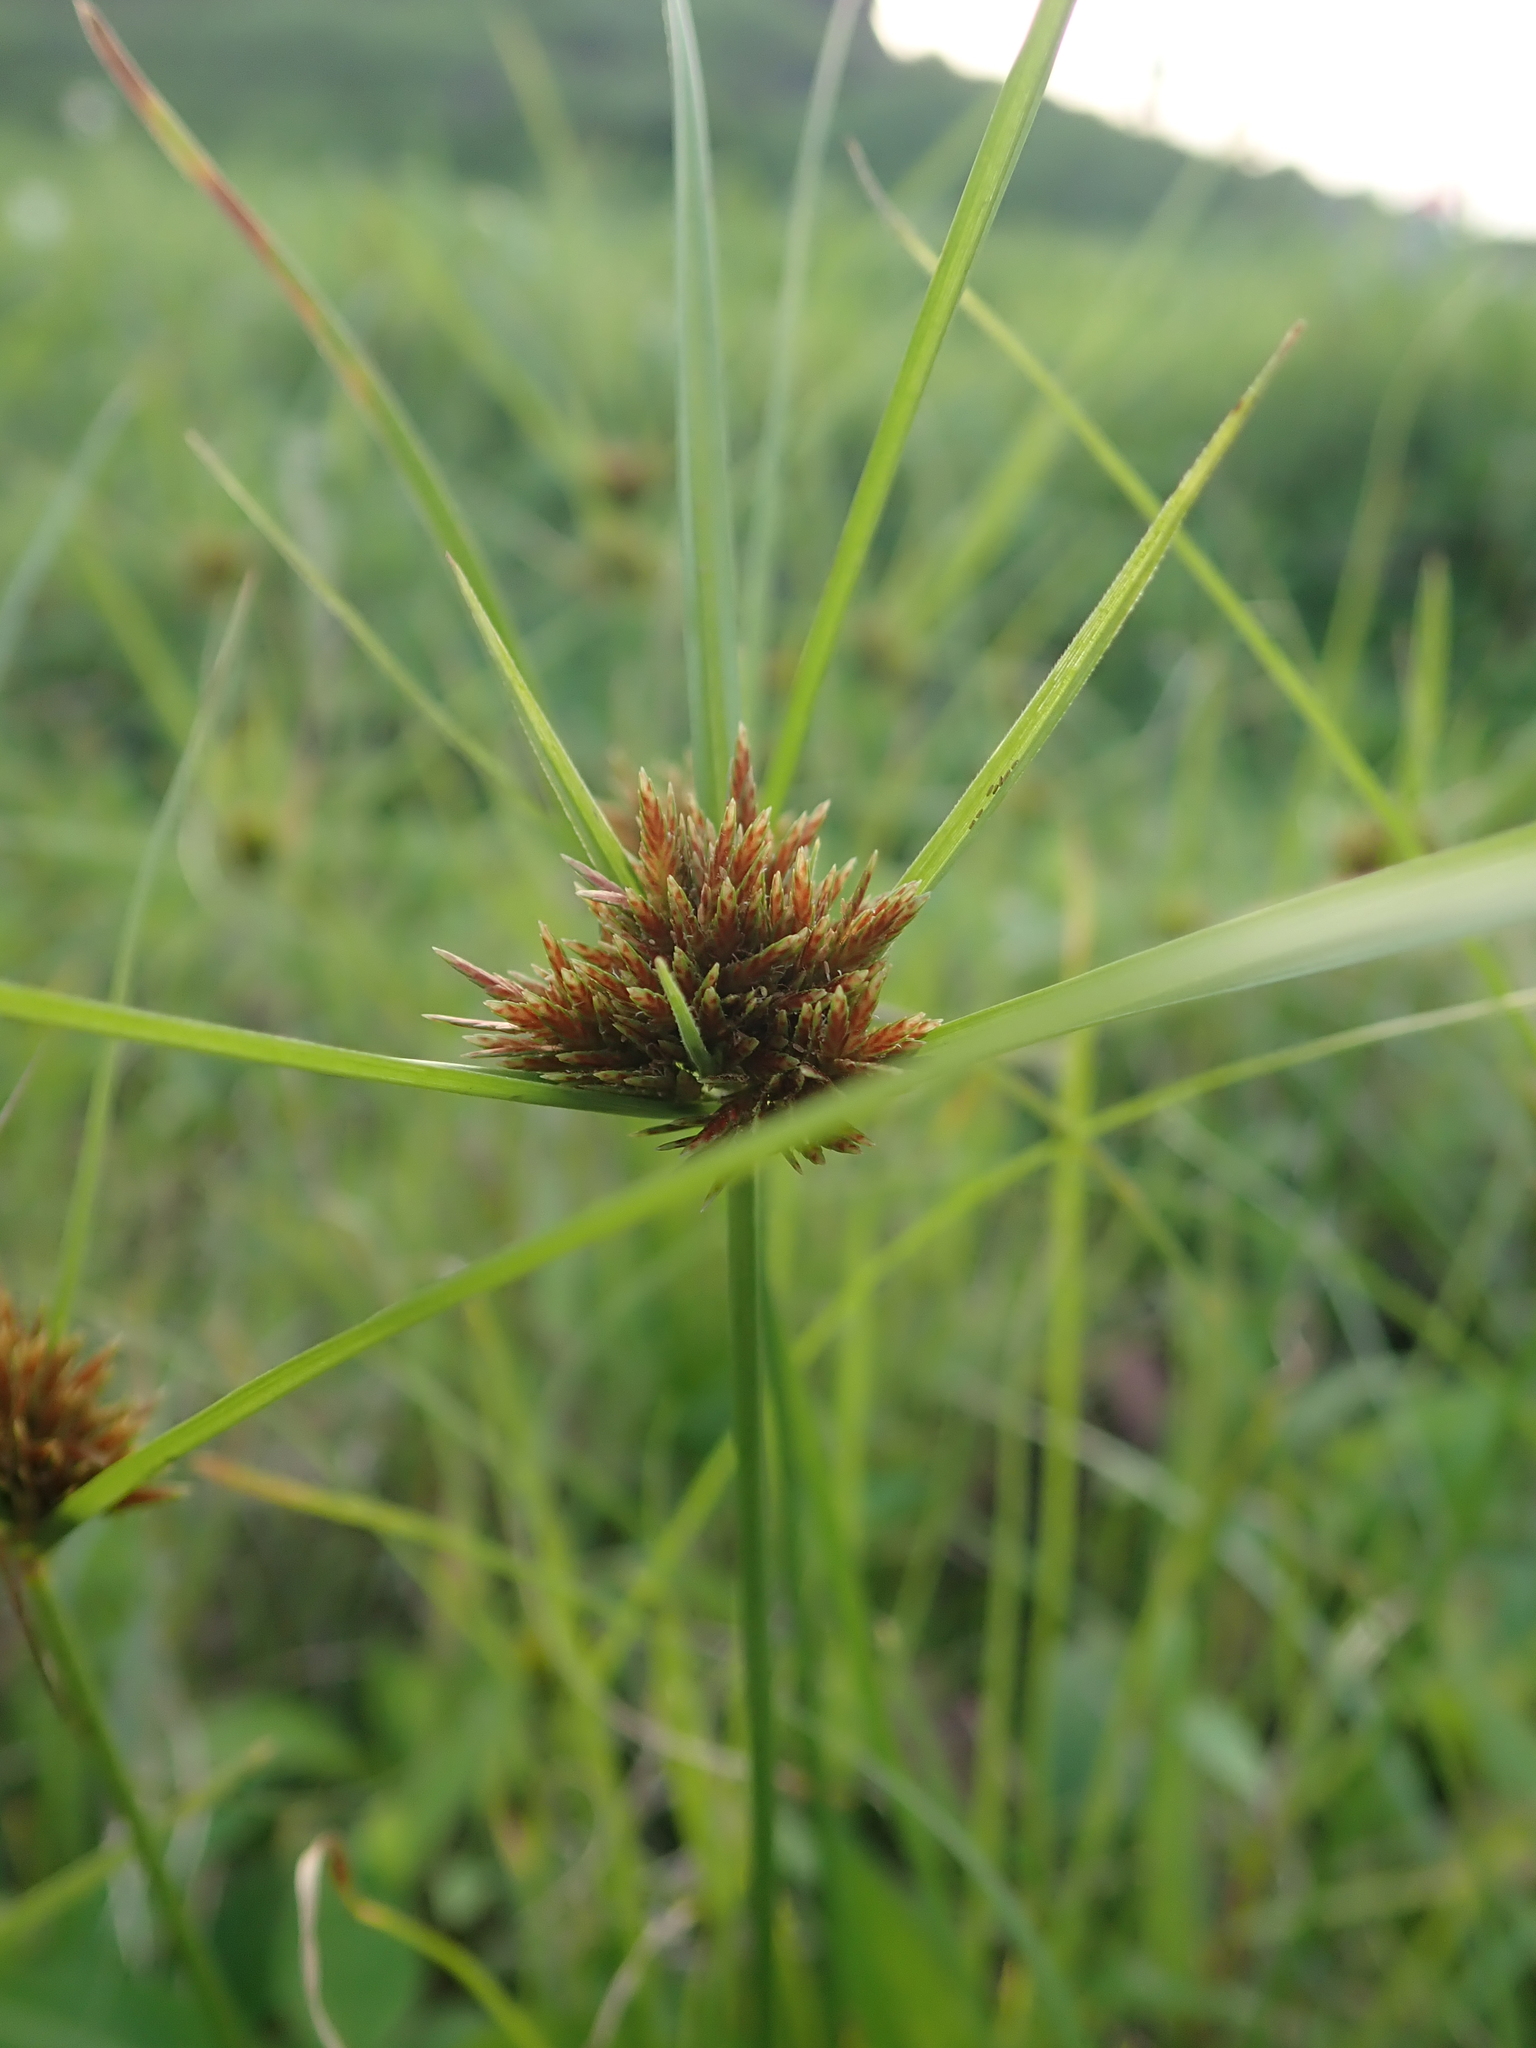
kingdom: Plantae
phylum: Tracheophyta
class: Liliopsida
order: Poales
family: Cyperaceae
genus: Cyperus
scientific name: Cyperus polystachyos
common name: Bunchy flat sedge
